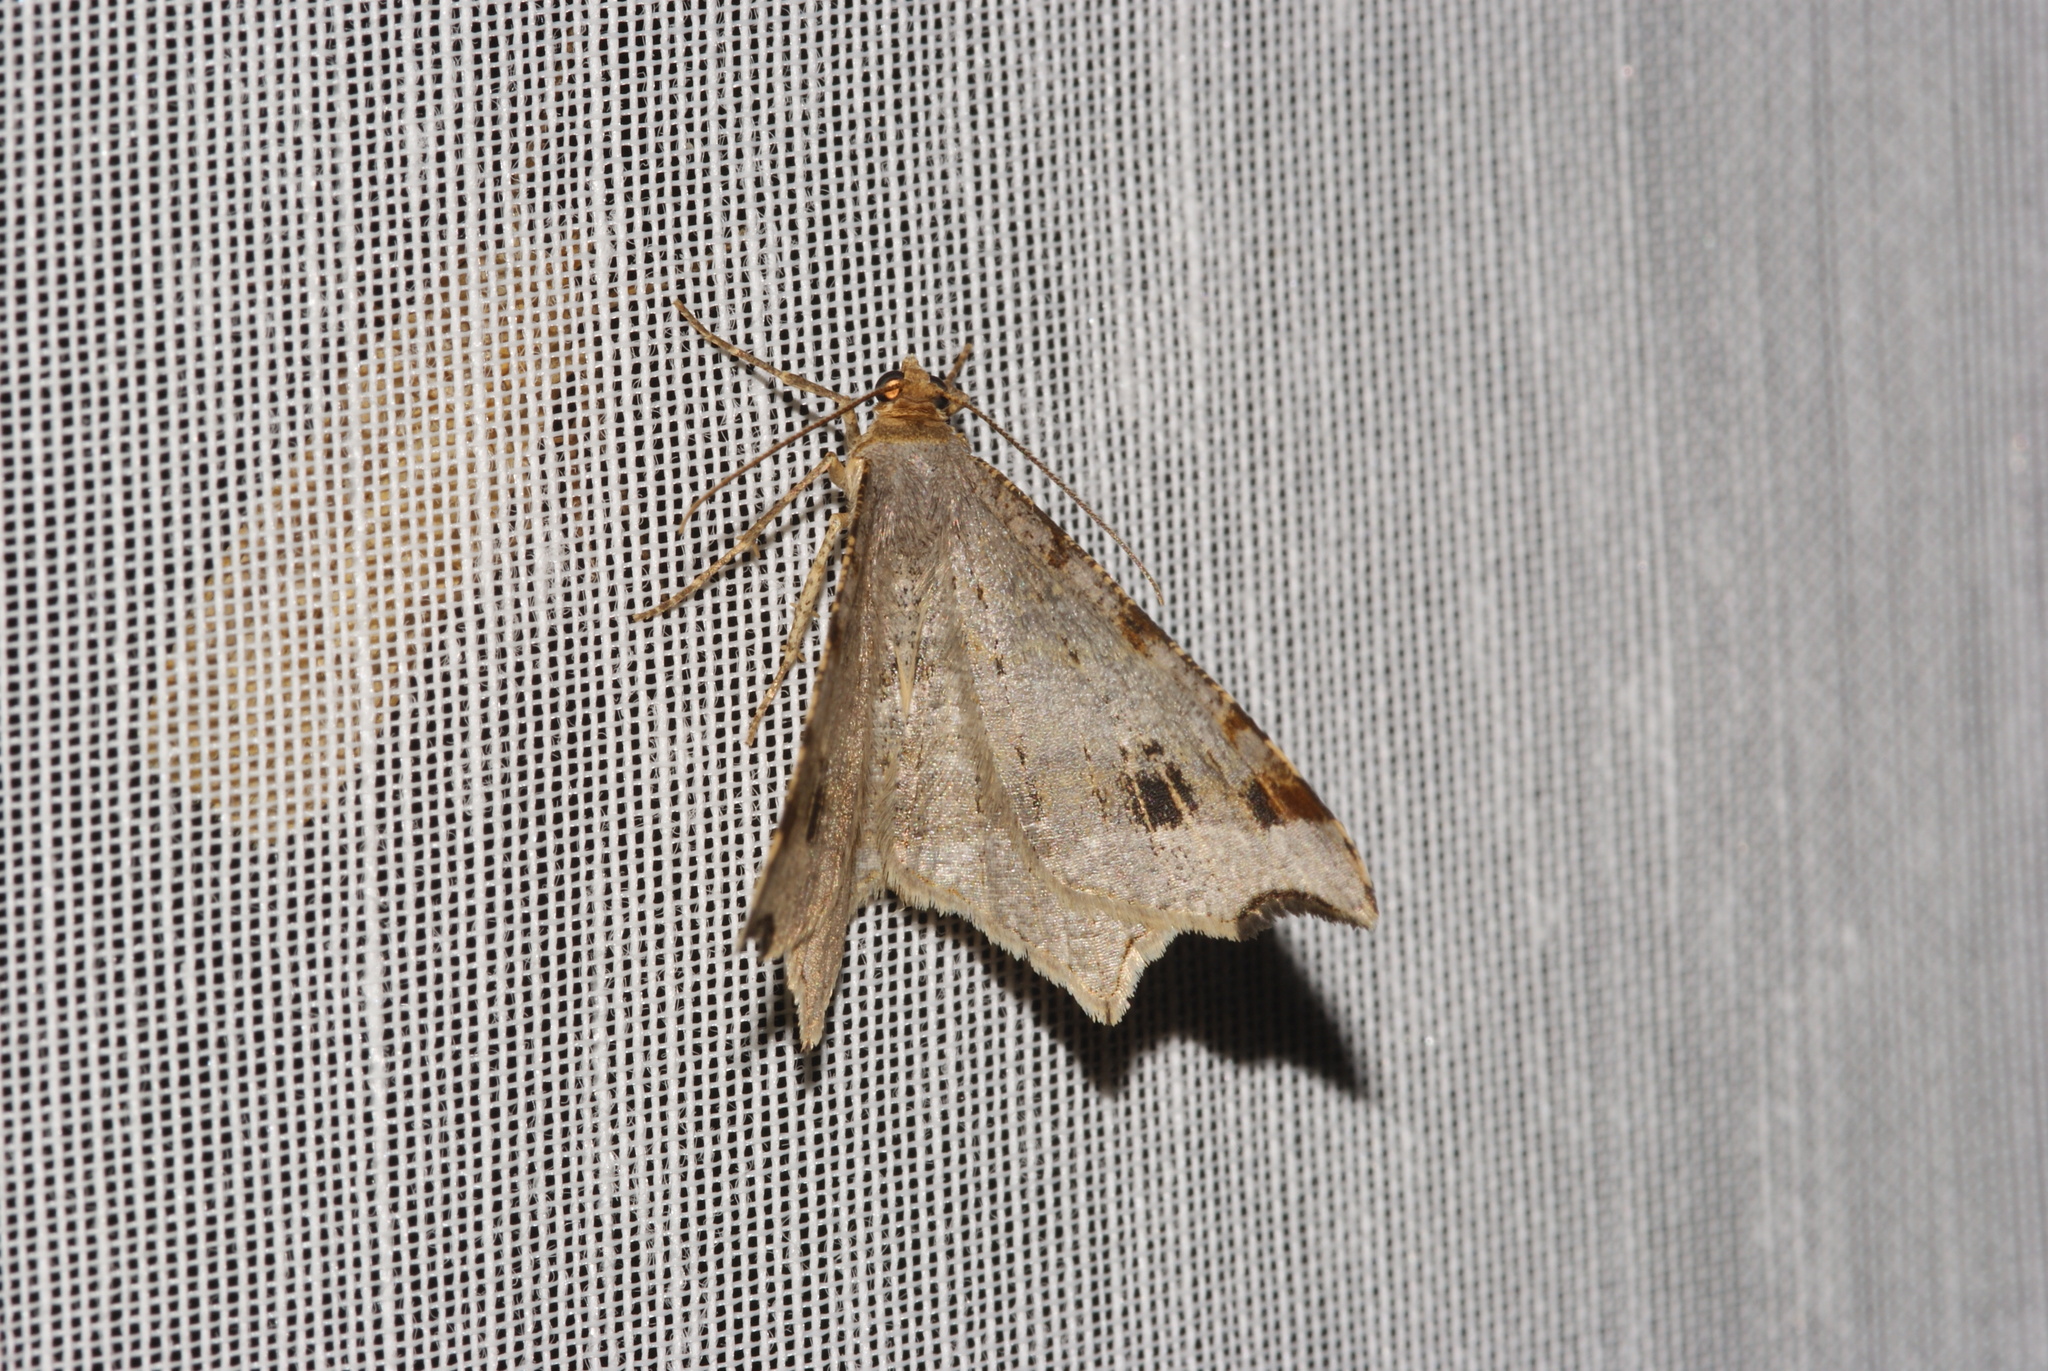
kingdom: Animalia
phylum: Arthropoda
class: Insecta
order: Lepidoptera
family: Geometridae
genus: Macaria
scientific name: Macaria alternata
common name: Sharp-angled peacock
